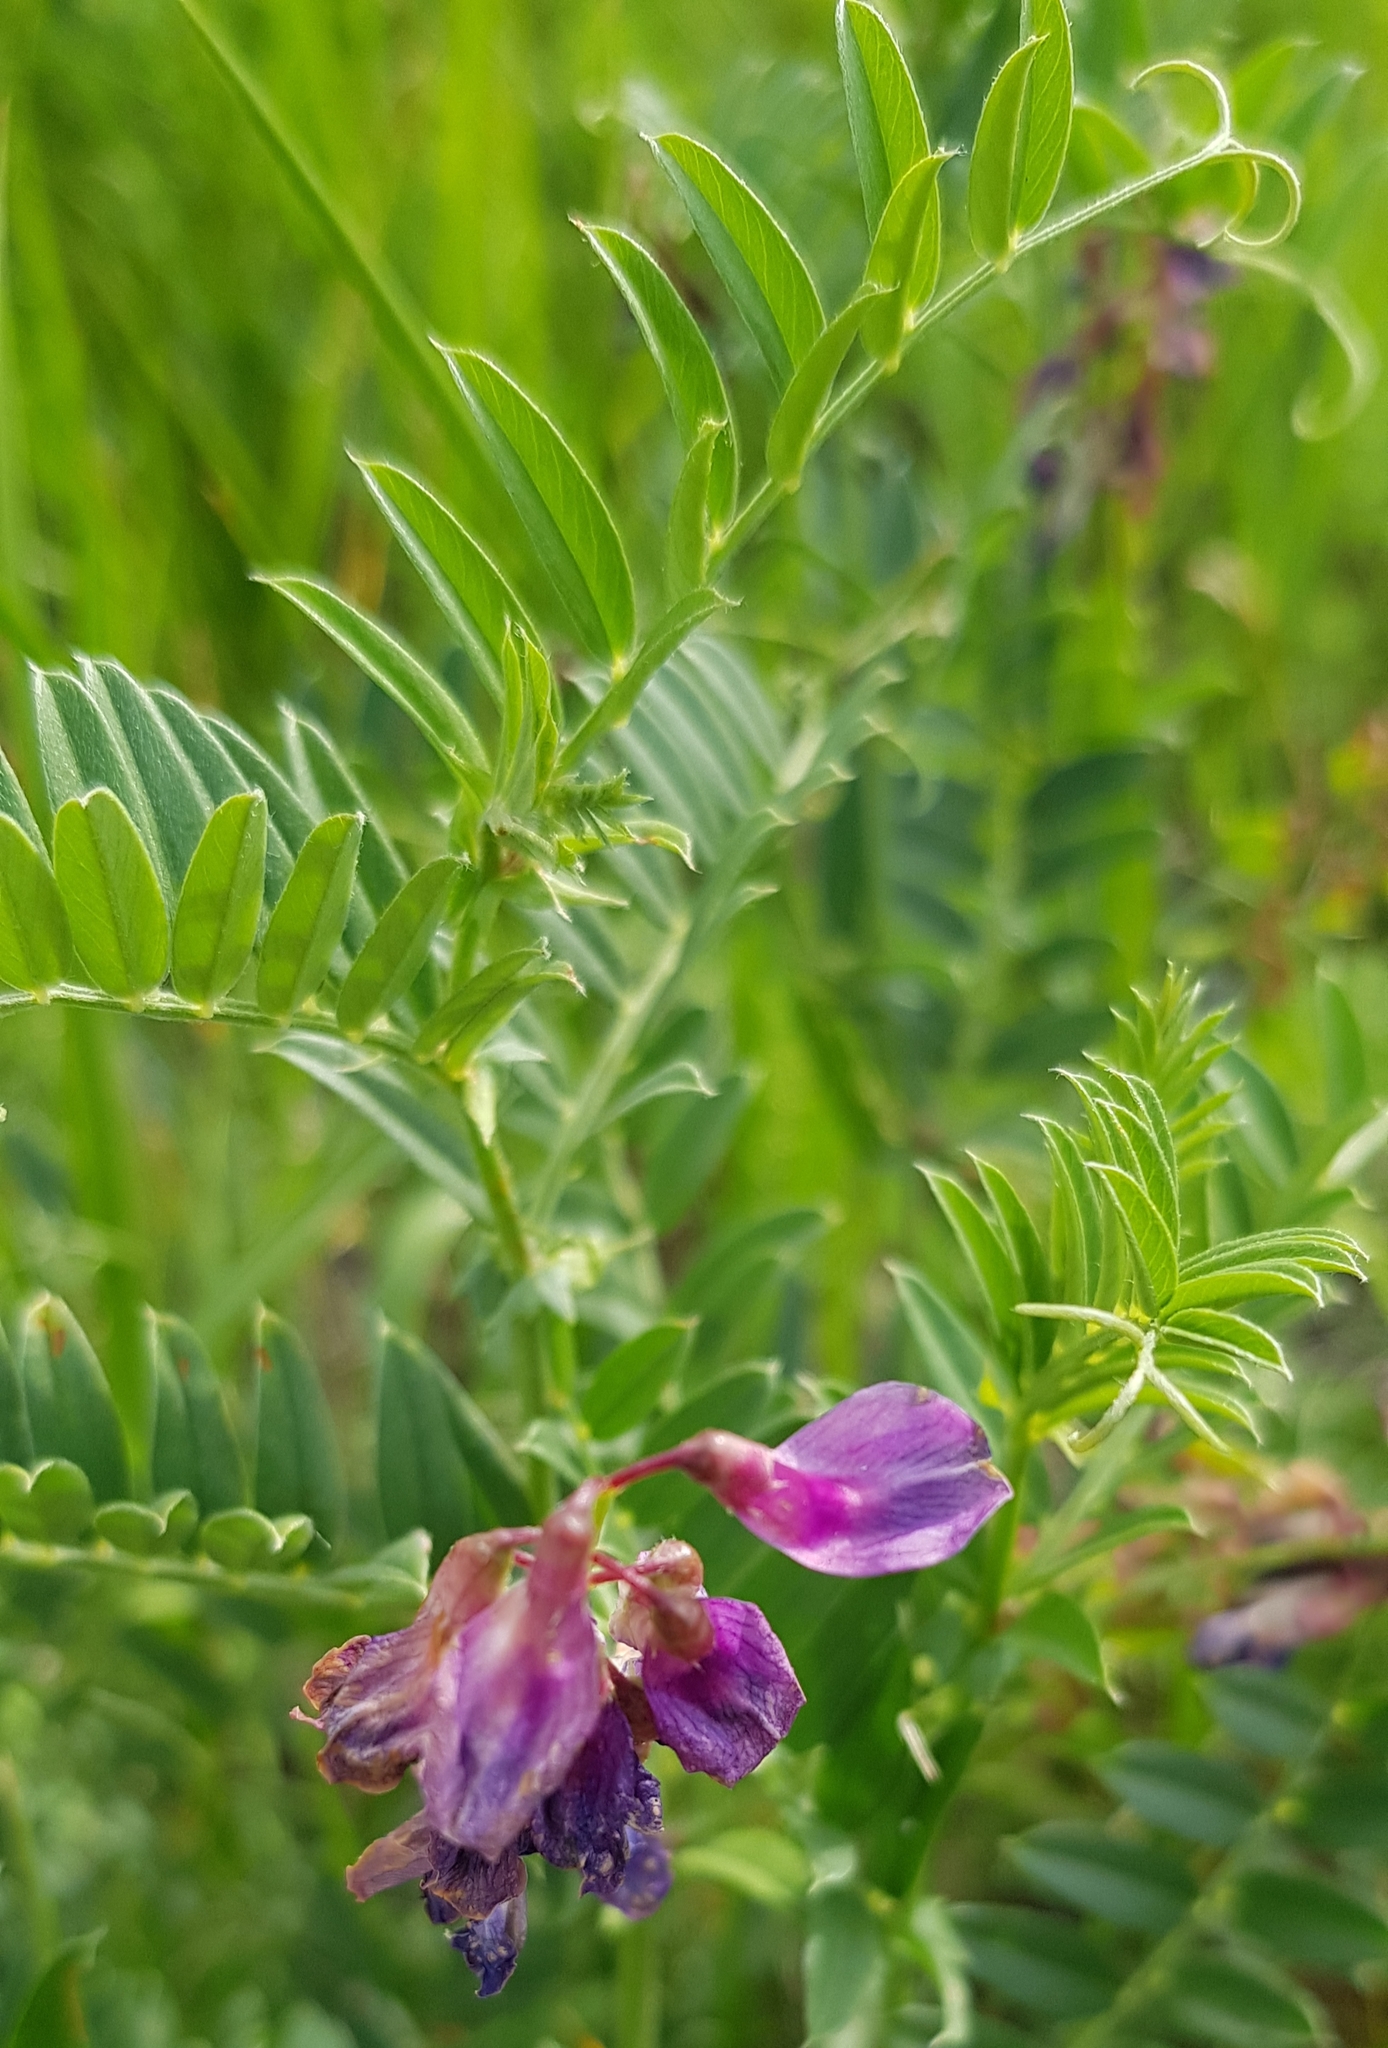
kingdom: Plantae
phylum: Tracheophyta
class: Magnoliopsida
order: Fabales
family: Fabaceae
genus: Vicia
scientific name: Vicia amoena
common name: Cheder ebs
